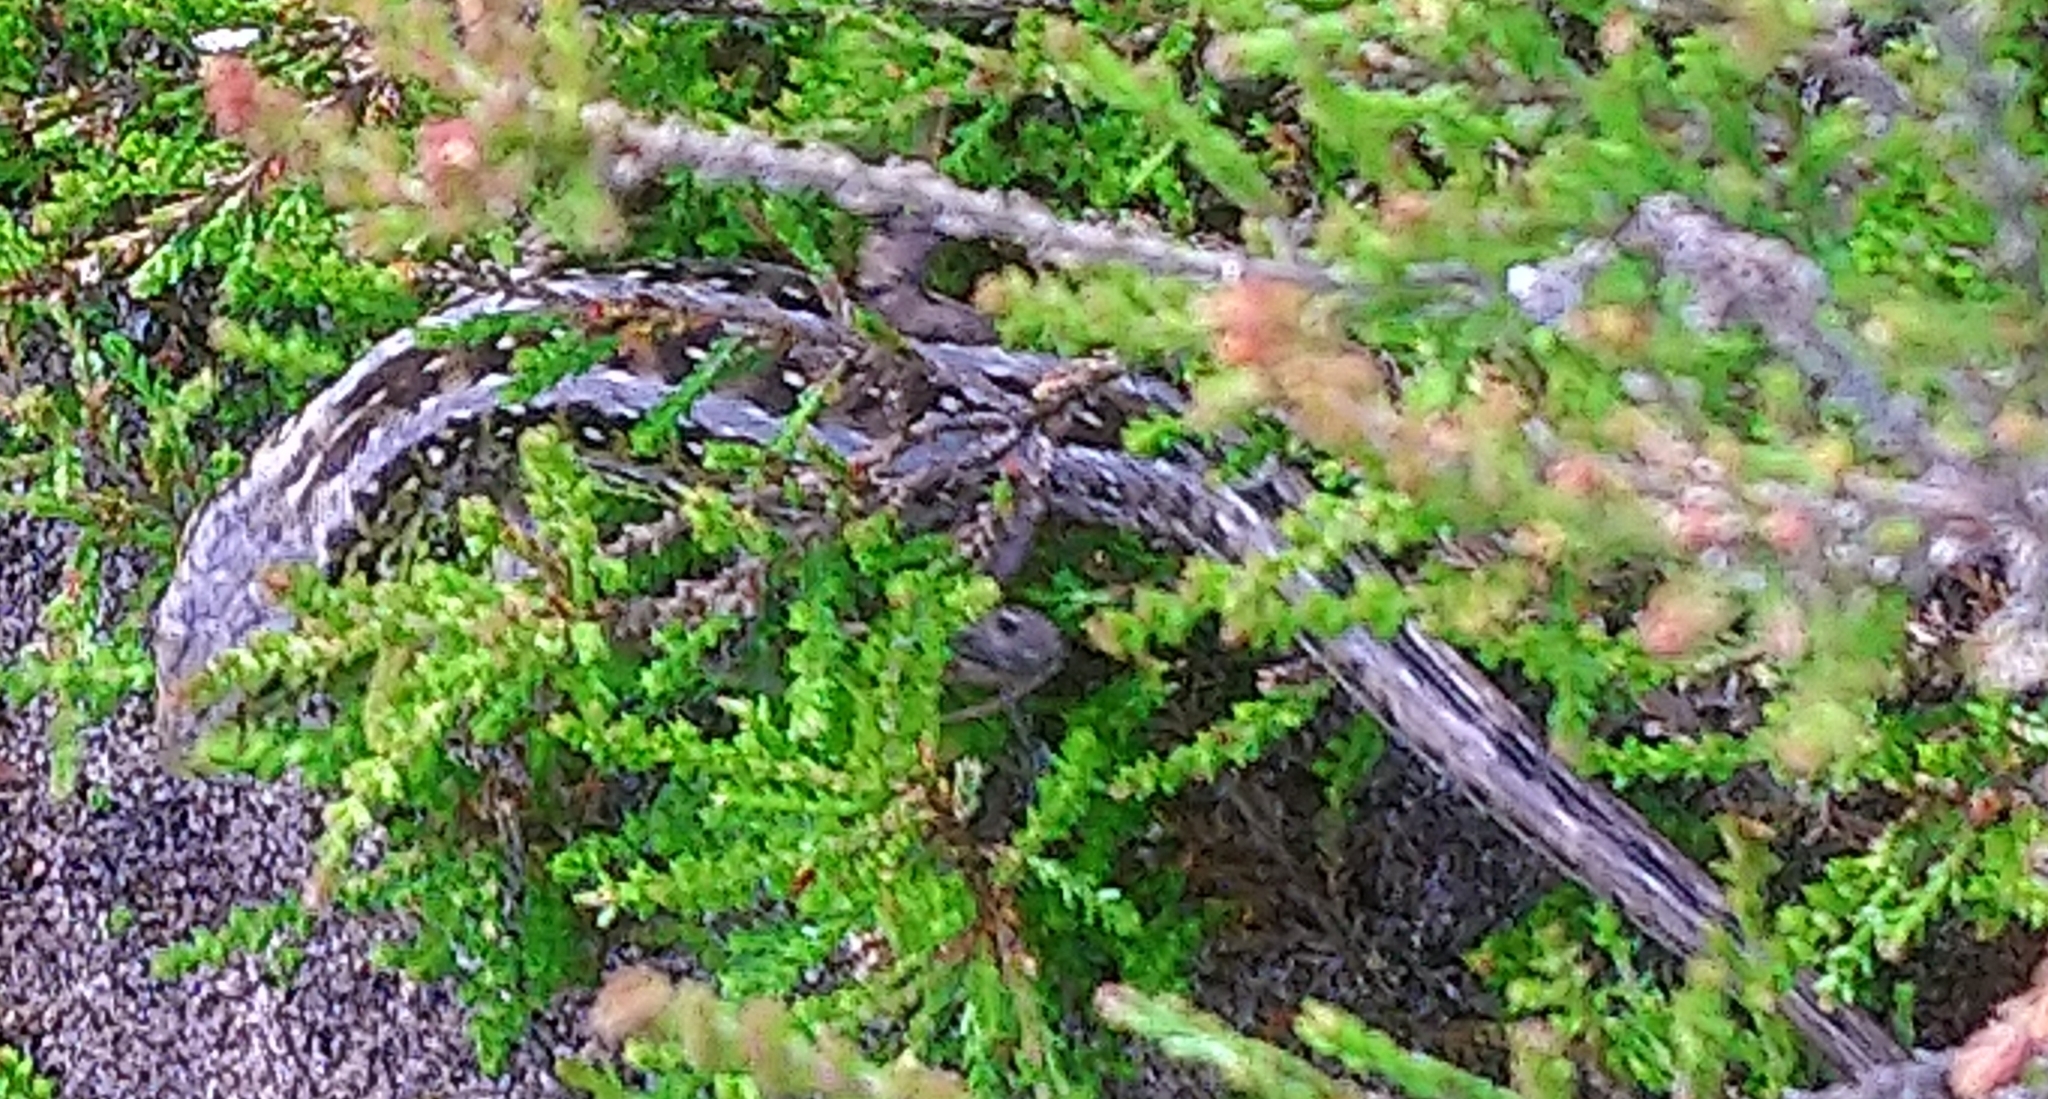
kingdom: Animalia
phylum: Chordata
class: Squamata
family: Lacertidae
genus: Lacerta
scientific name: Lacerta agilis
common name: Sand lizard
